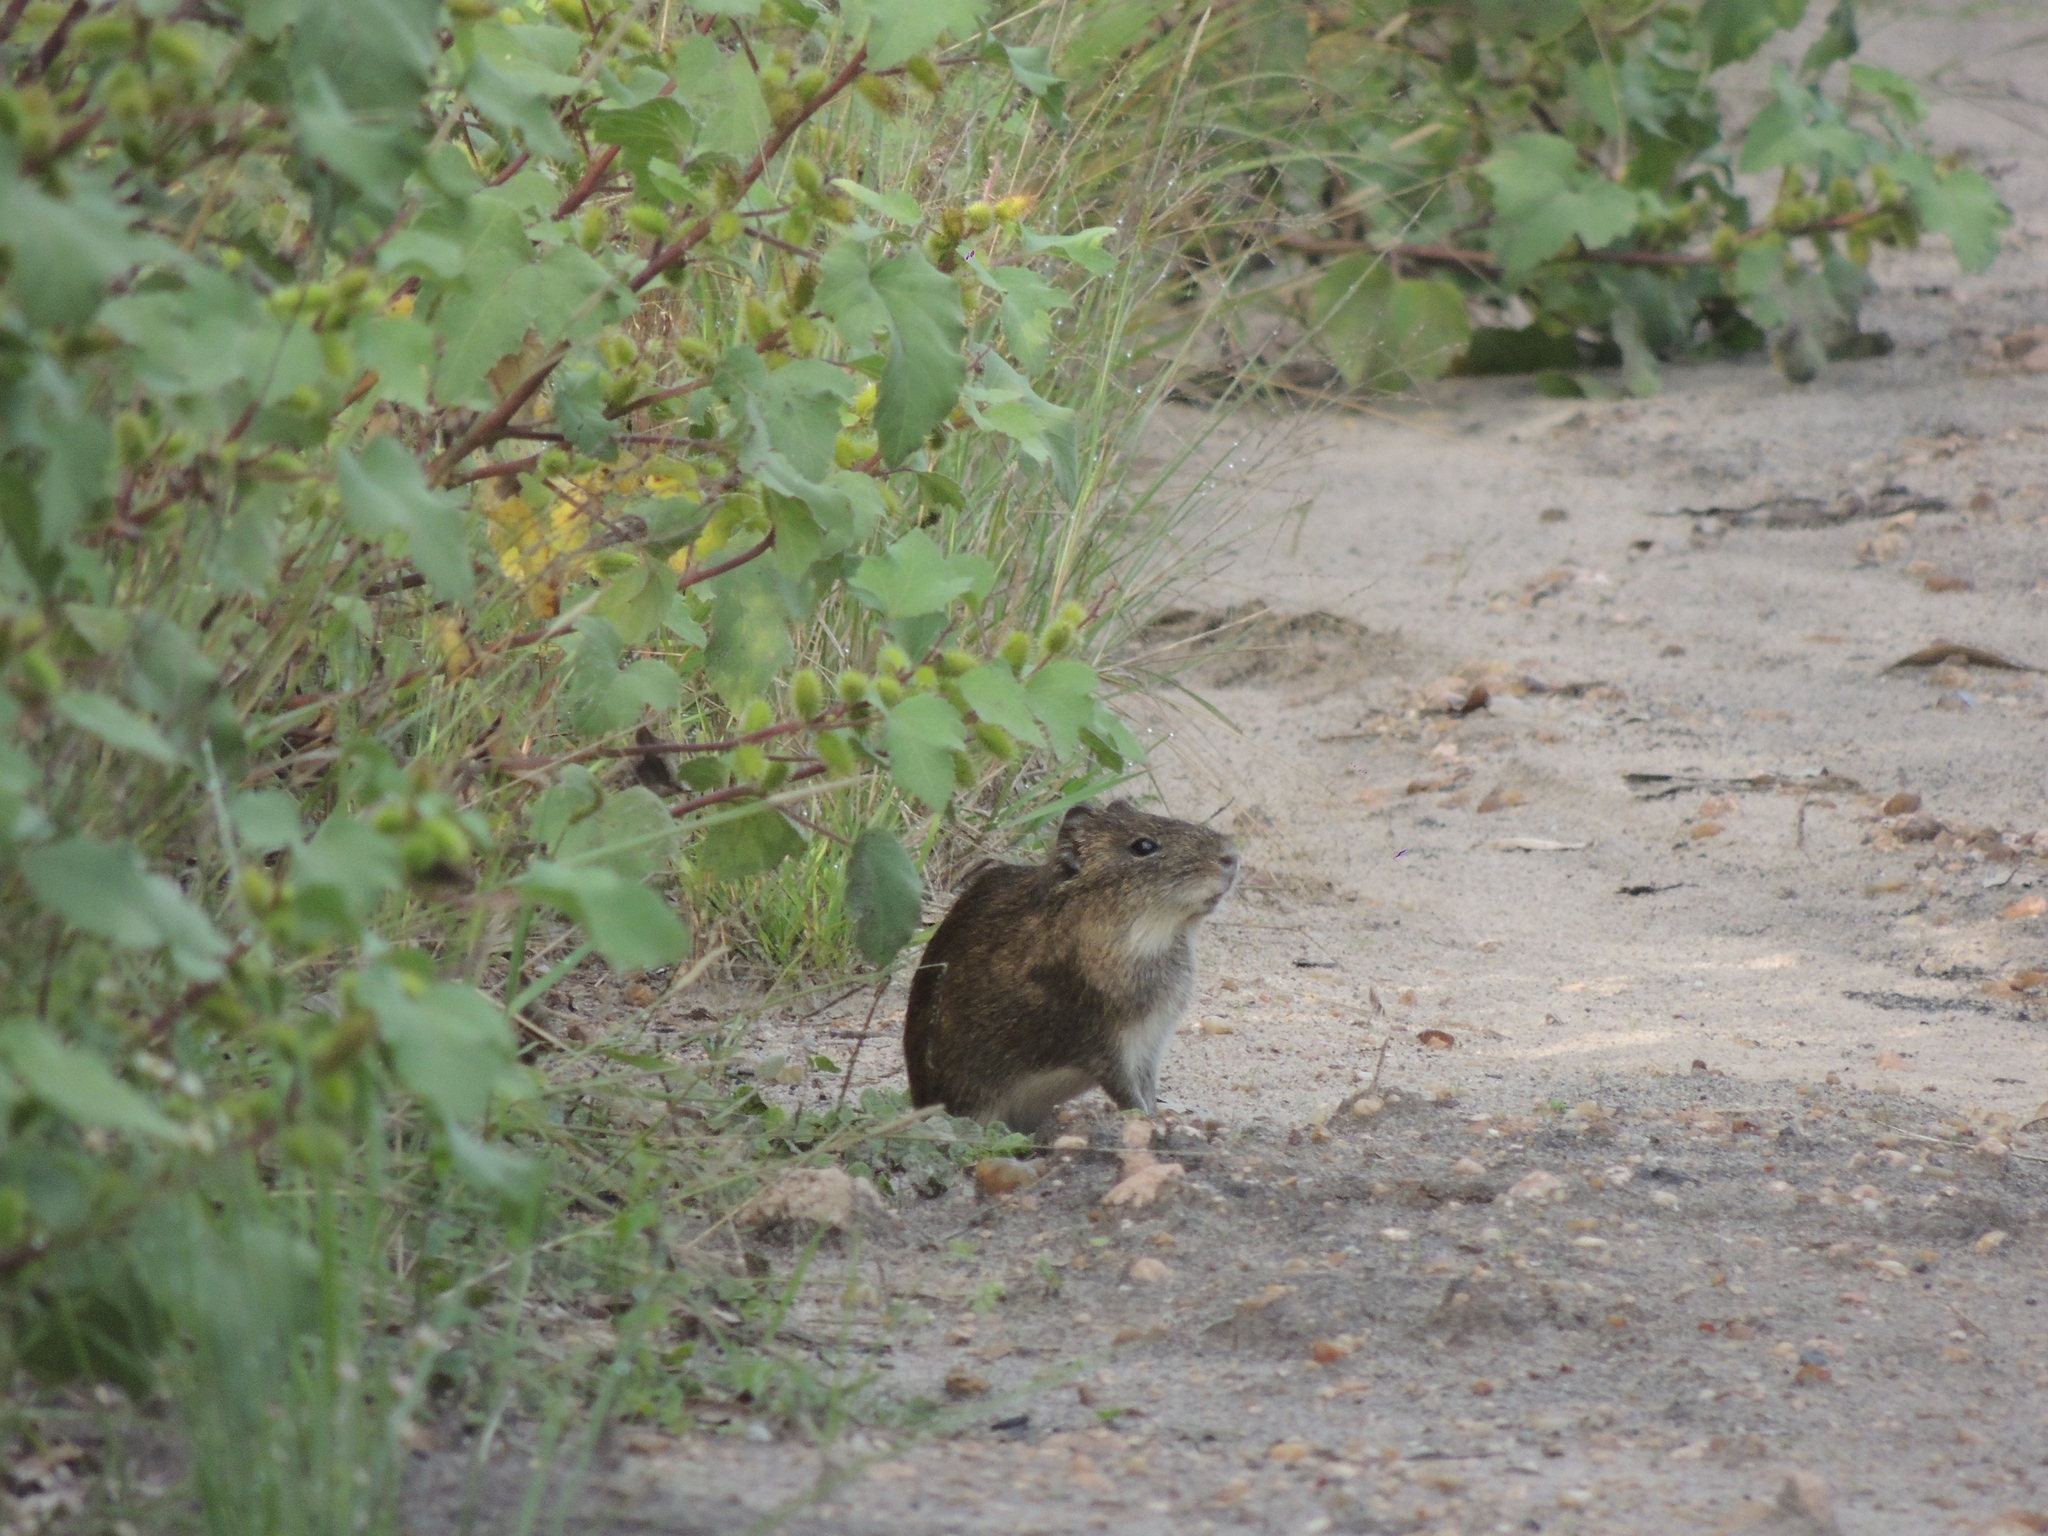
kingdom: Animalia
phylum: Chordata
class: Mammalia
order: Rodentia
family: Caviidae
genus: Cavia
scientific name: Cavia aperea
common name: Brazilian guinea pig
